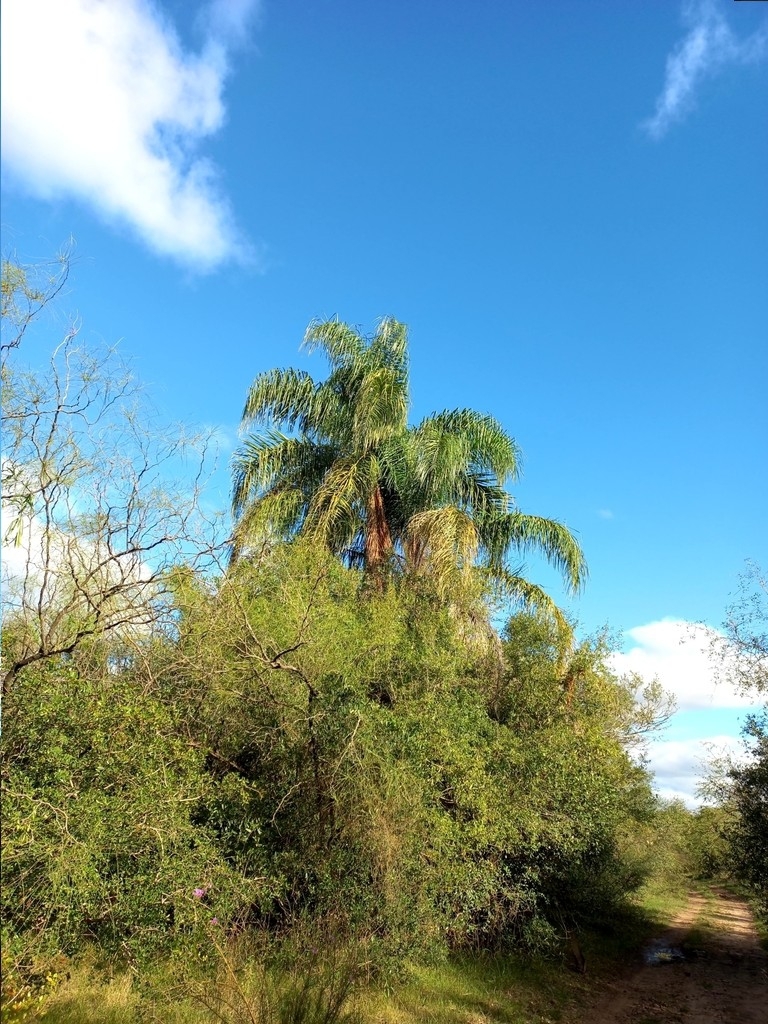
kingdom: Plantae
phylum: Tracheophyta
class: Liliopsida
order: Arecales
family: Arecaceae
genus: Syagrus
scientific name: Syagrus romanzoffiana
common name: Queen palm
